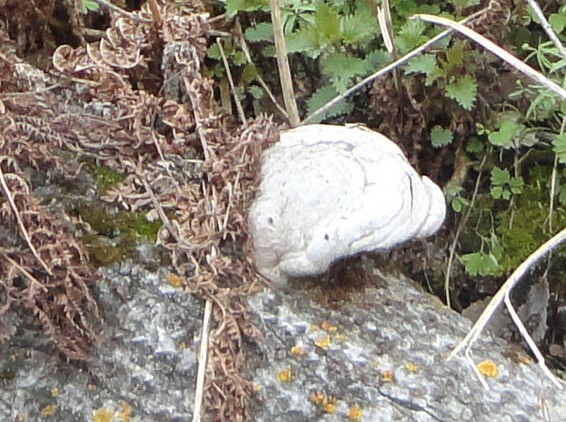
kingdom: Fungi
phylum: Basidiomycota
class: Agaricomycetes
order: Polyporales
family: Polyporaceae
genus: Fomes
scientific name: Fomes fomentarius
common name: Hoof fungus
